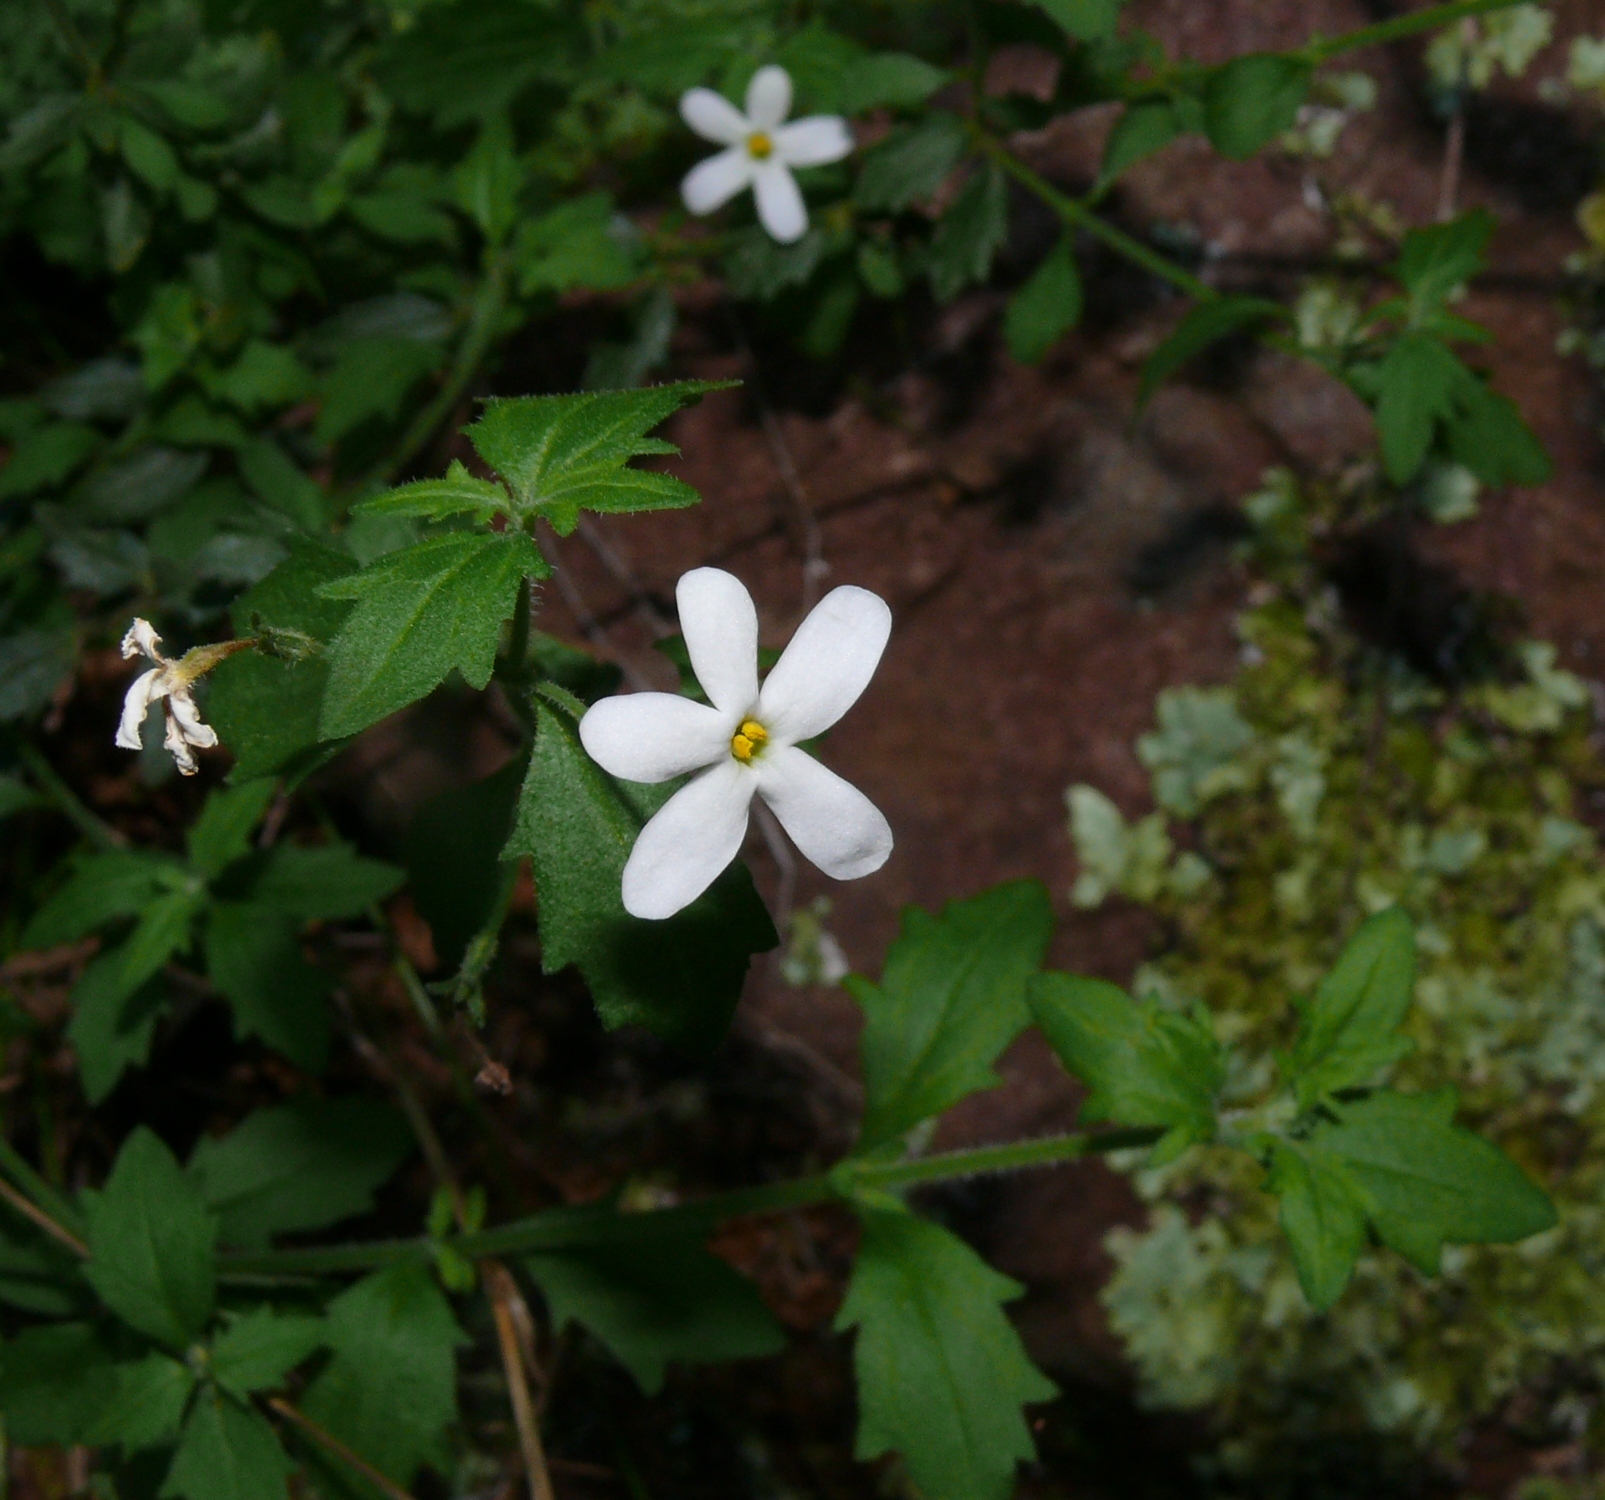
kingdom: Plantae
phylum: Tracheophyta
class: Magnoliopsida
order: Lamiales
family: Scrophulariaceae
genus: Chaenostoma
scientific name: Chaenostoma hispidum
